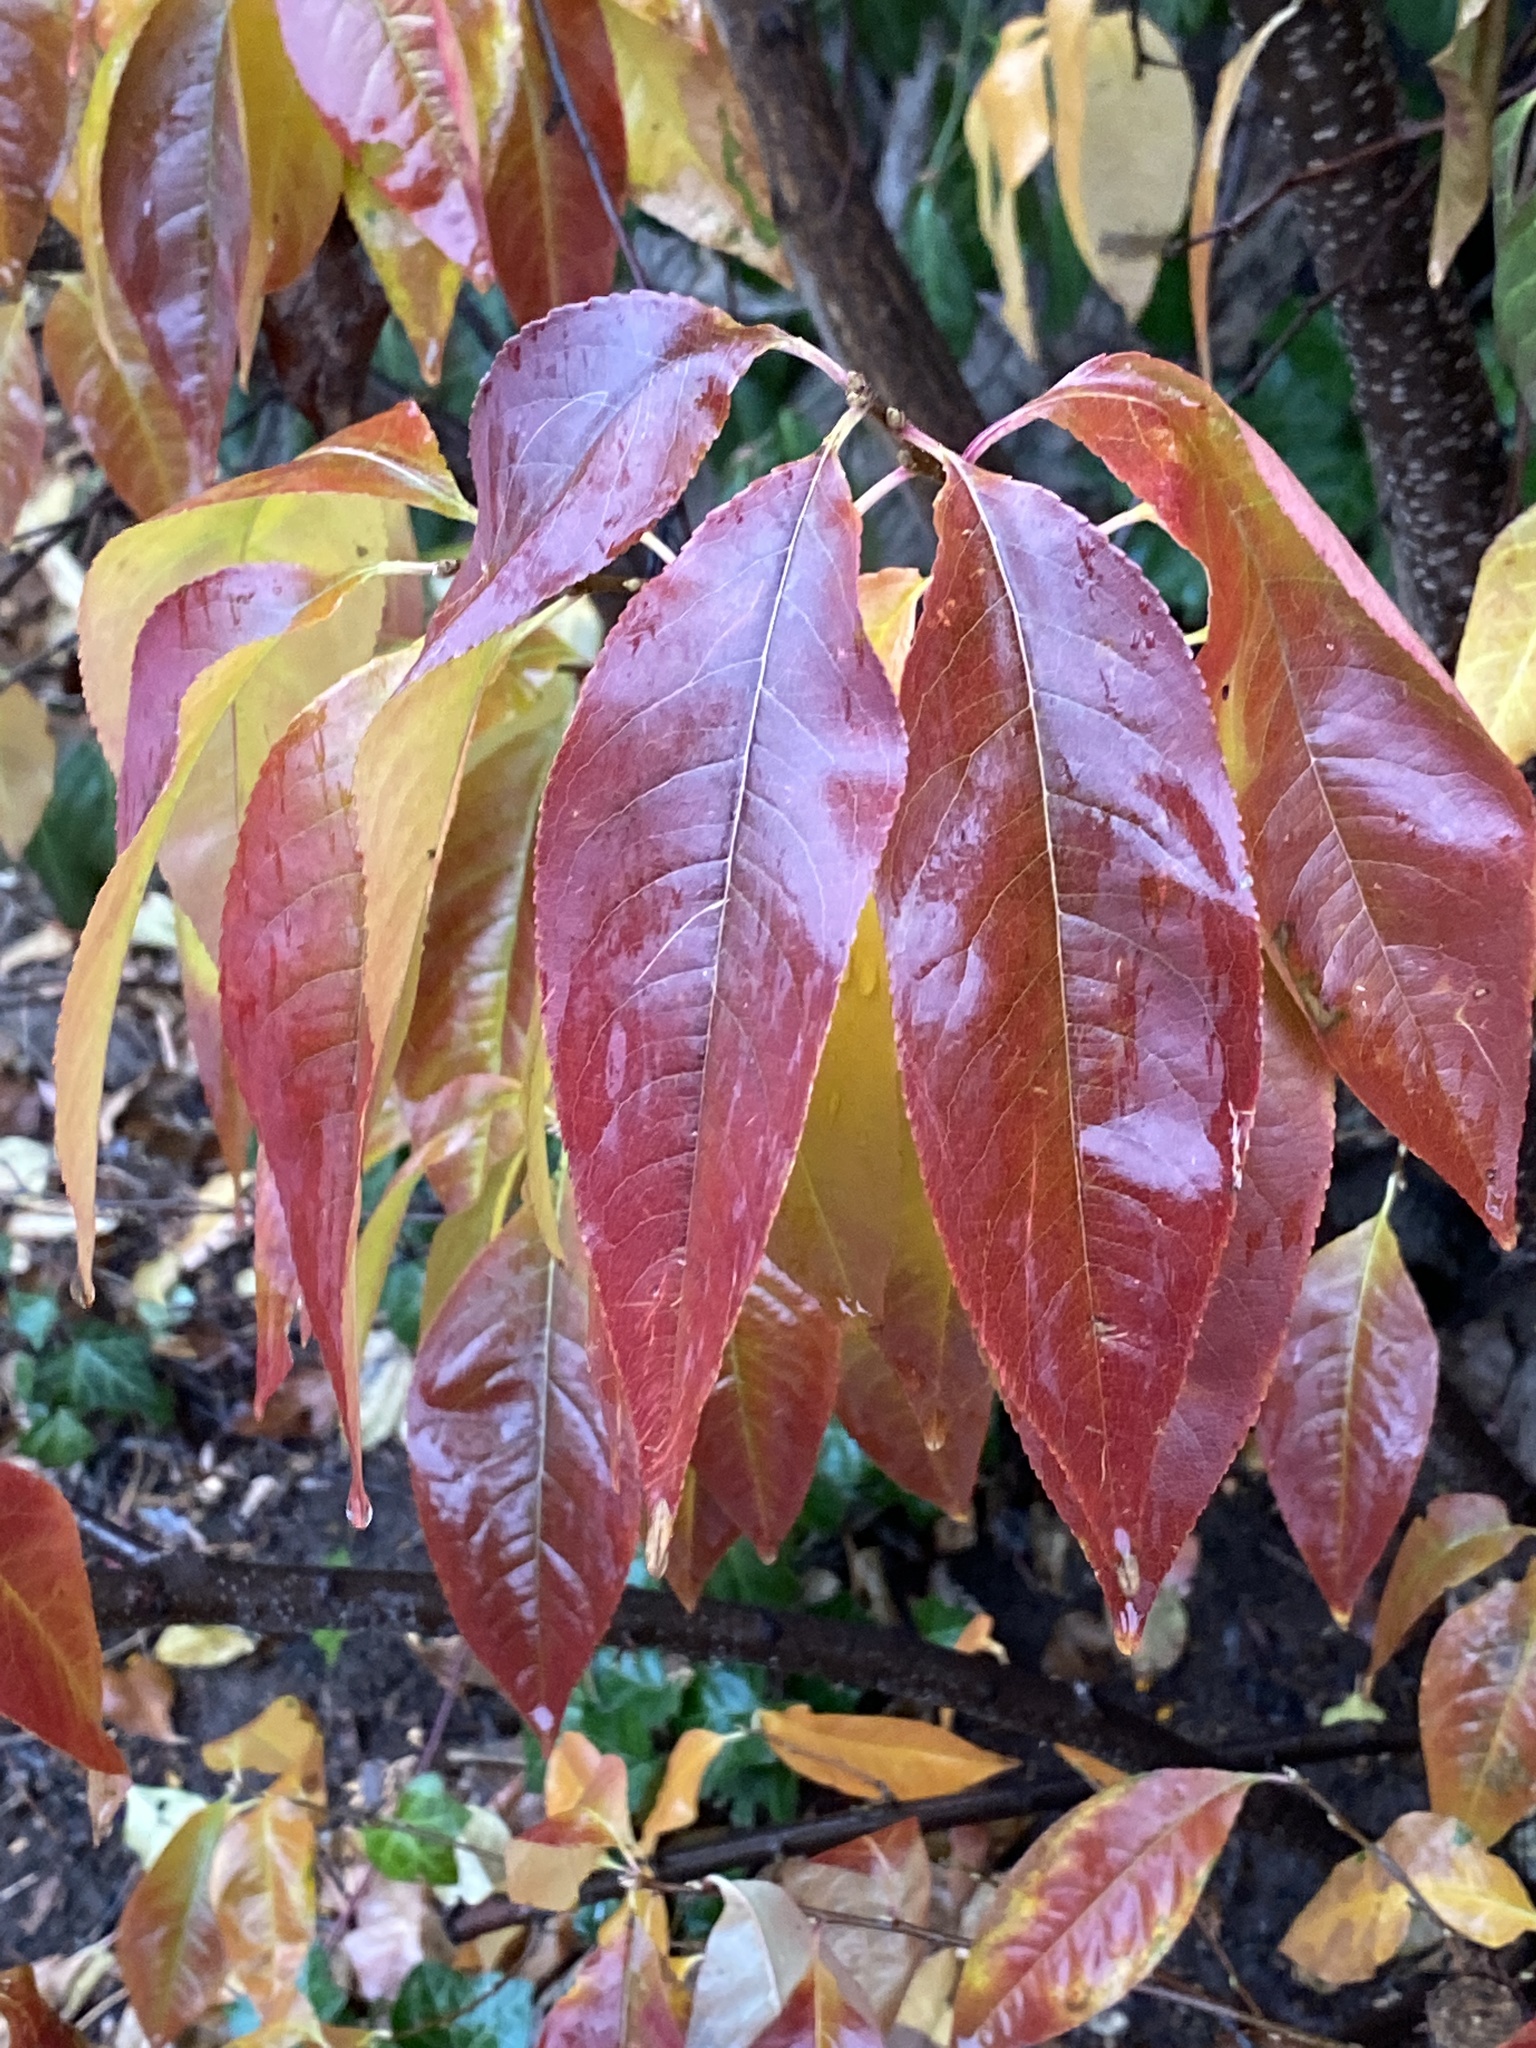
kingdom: Plantae
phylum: Tracheophyta
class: Magnoliopsida
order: Rosales
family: Rosaceae
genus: Prunus
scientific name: Prunus serotina
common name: Black cherry
